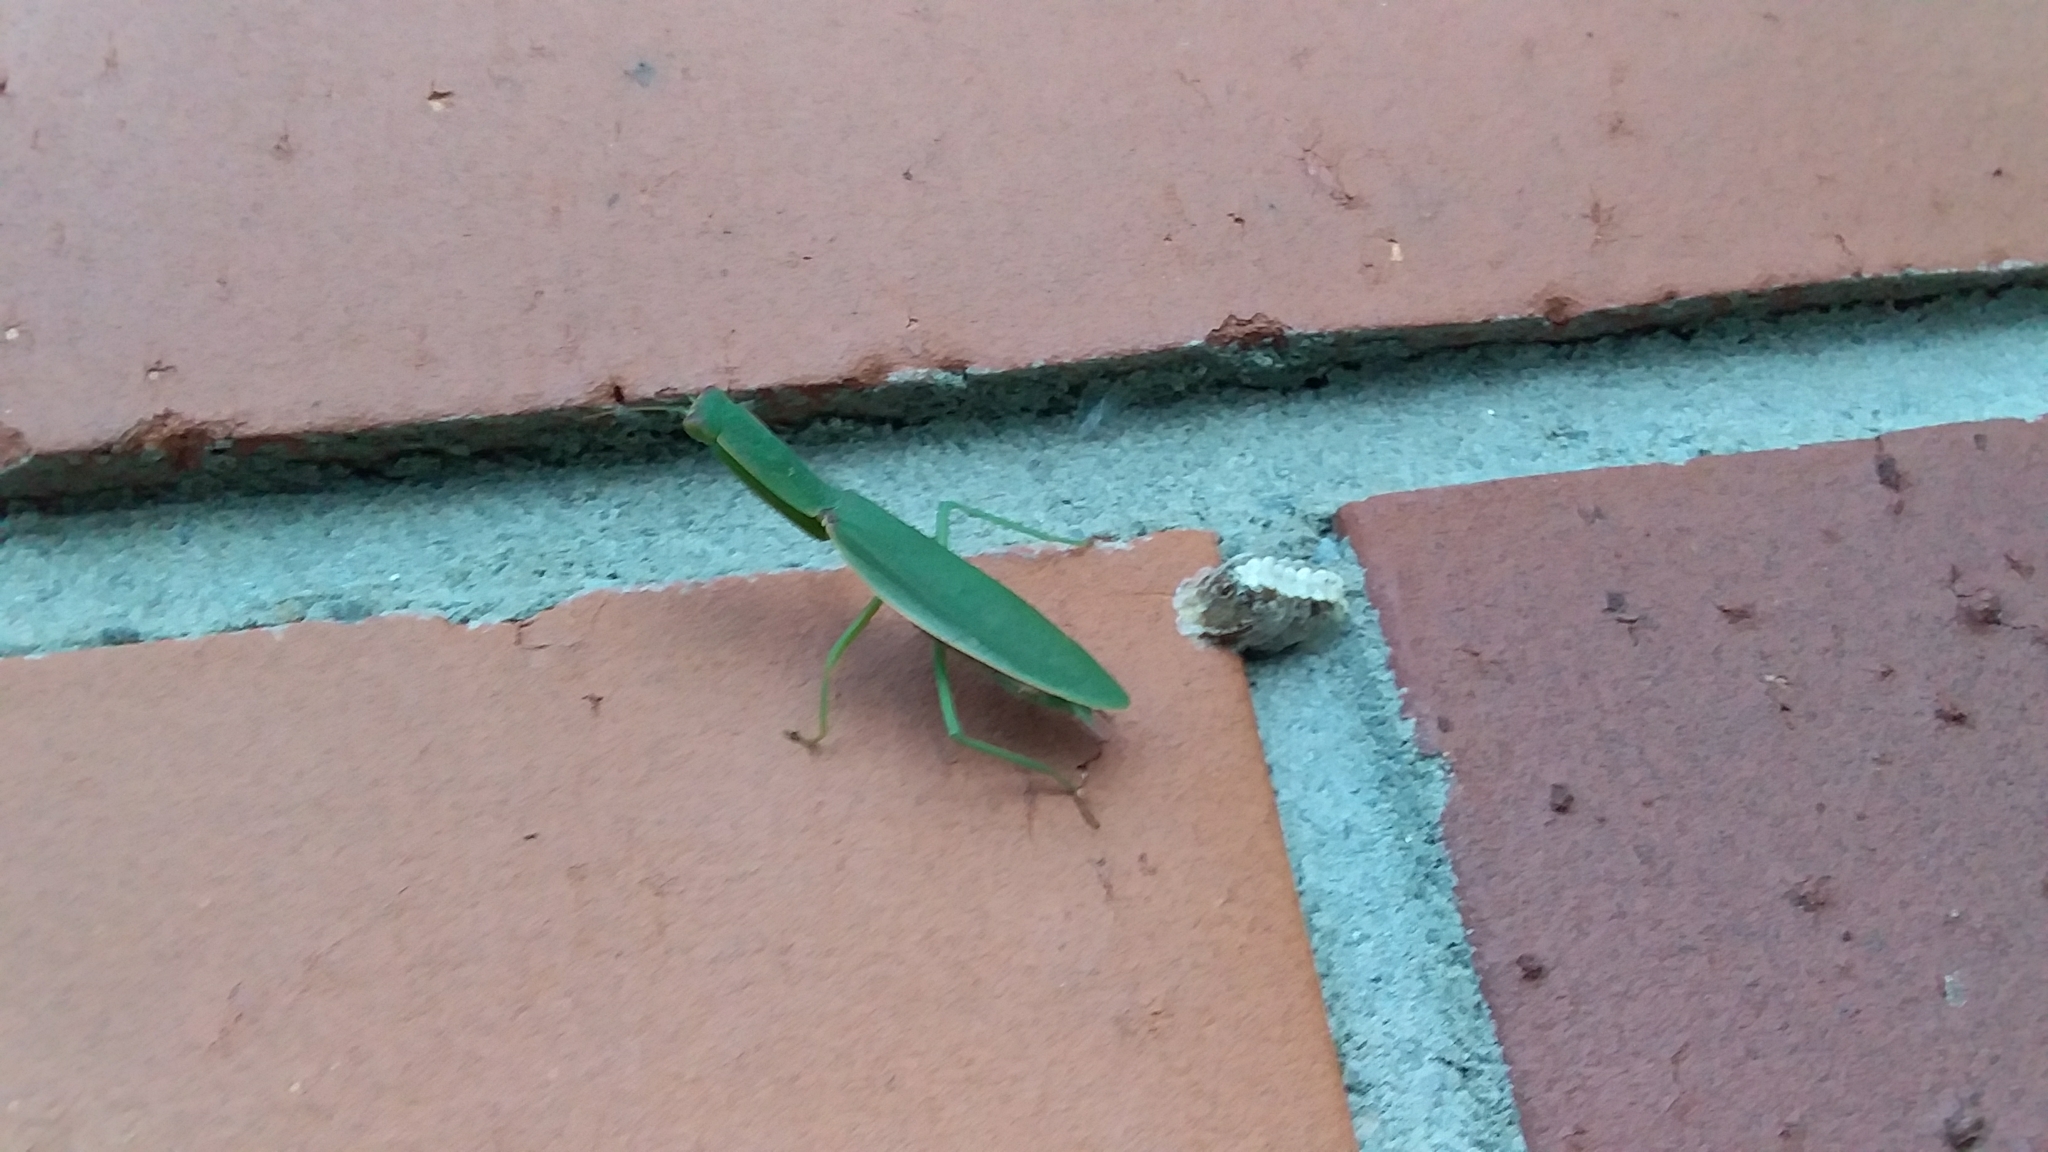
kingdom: Animalia
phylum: Arthropoda
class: Insecta
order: Mantodea
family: Mantidae
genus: Orthodera
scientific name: Orthodera novaezealandiae
